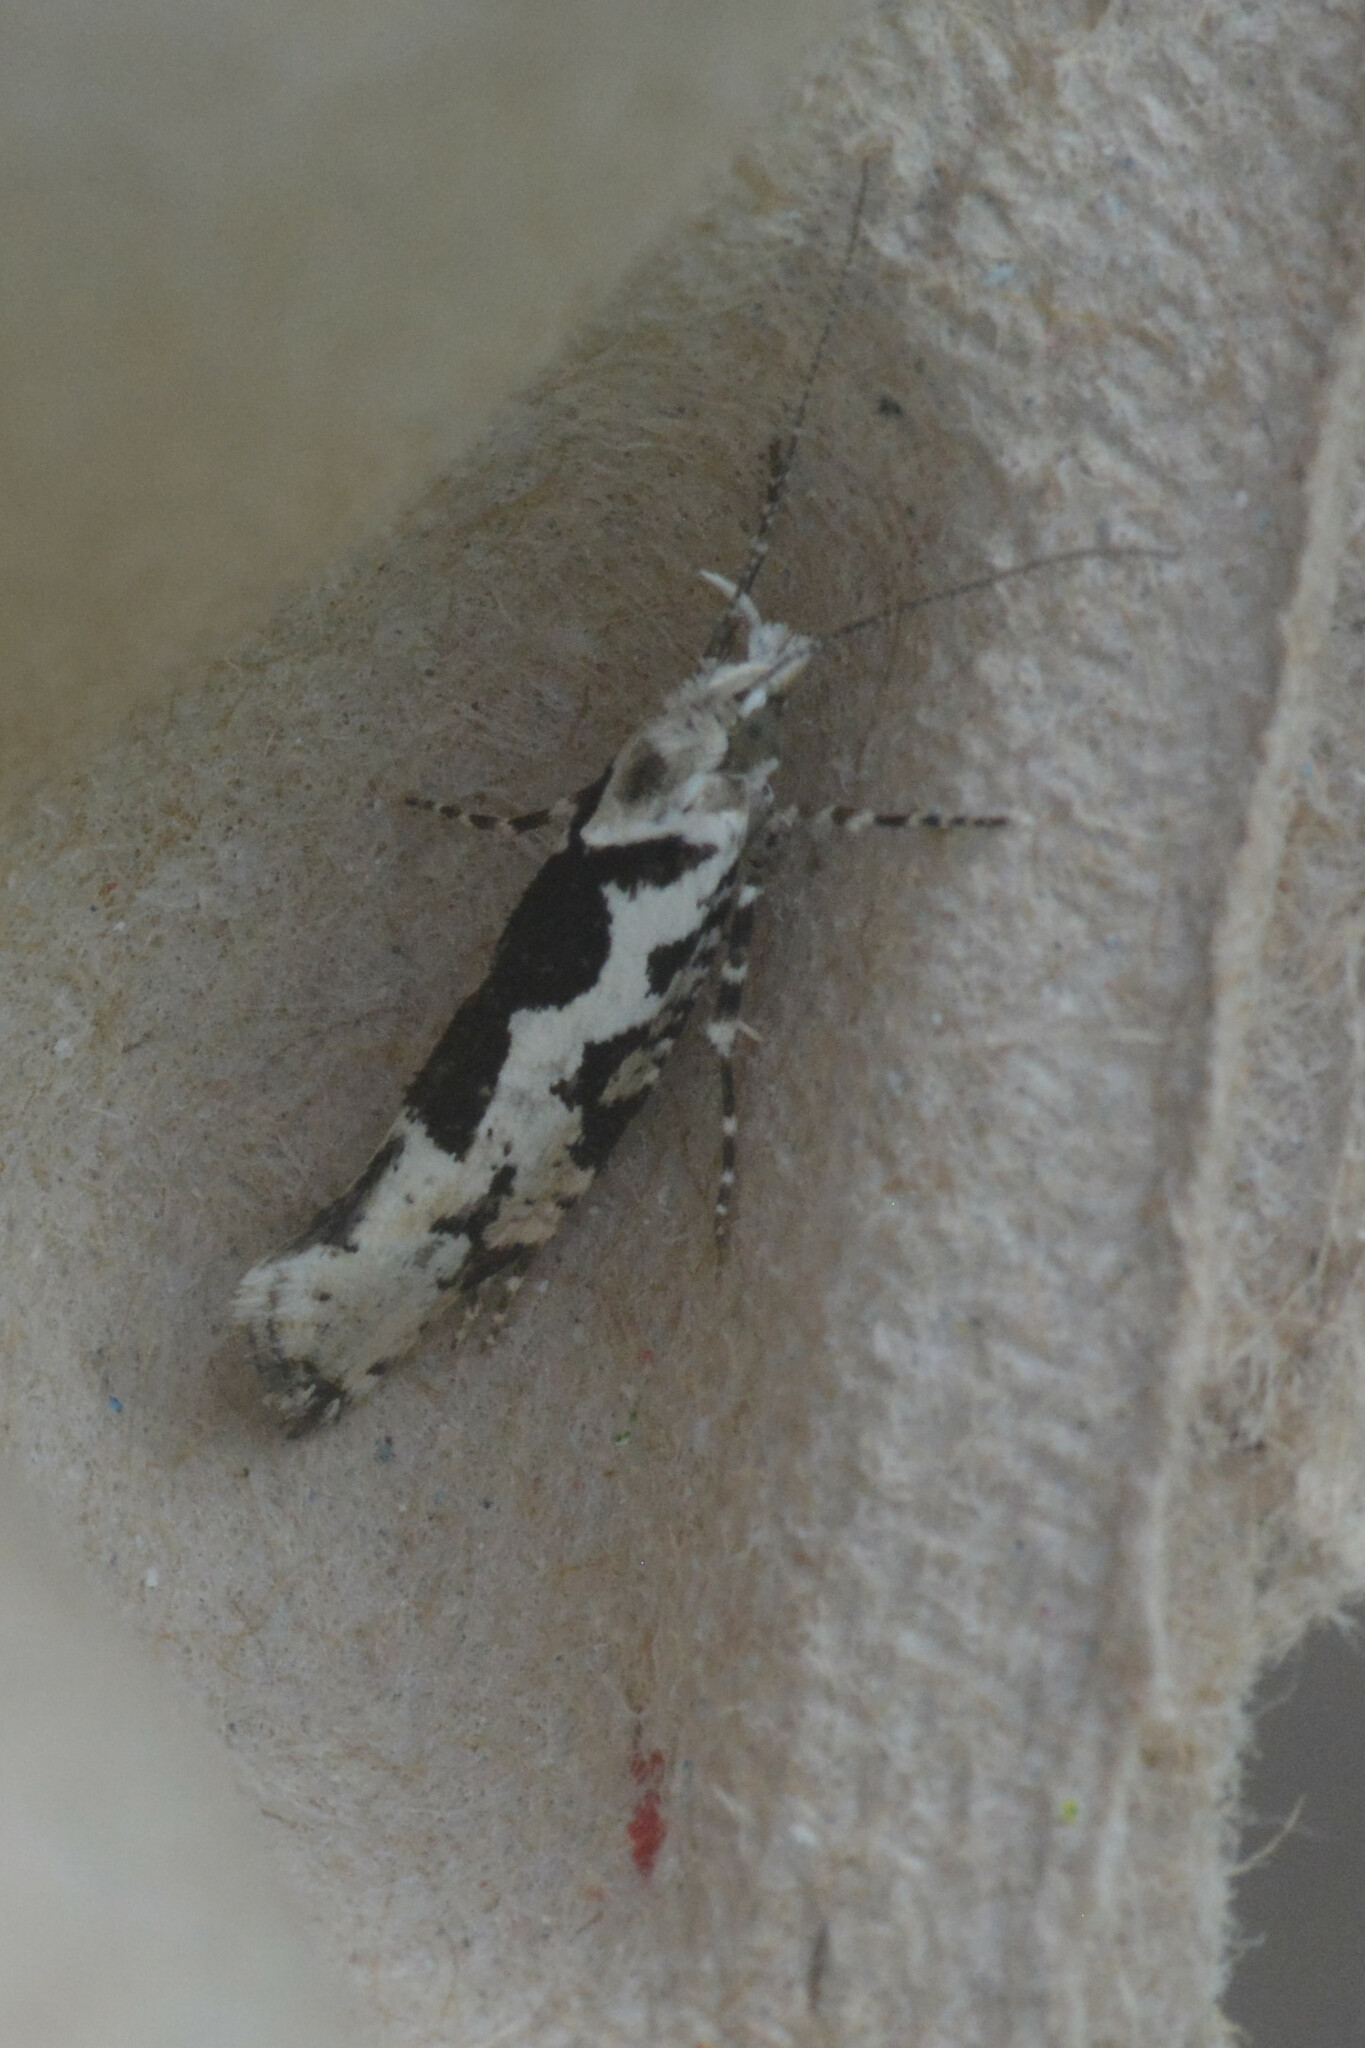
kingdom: Animalia
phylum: Arthropoda
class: Insecta
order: Lepidoptera
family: Plutellidae
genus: Ypsolophus
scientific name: Ypsolophus sequella
